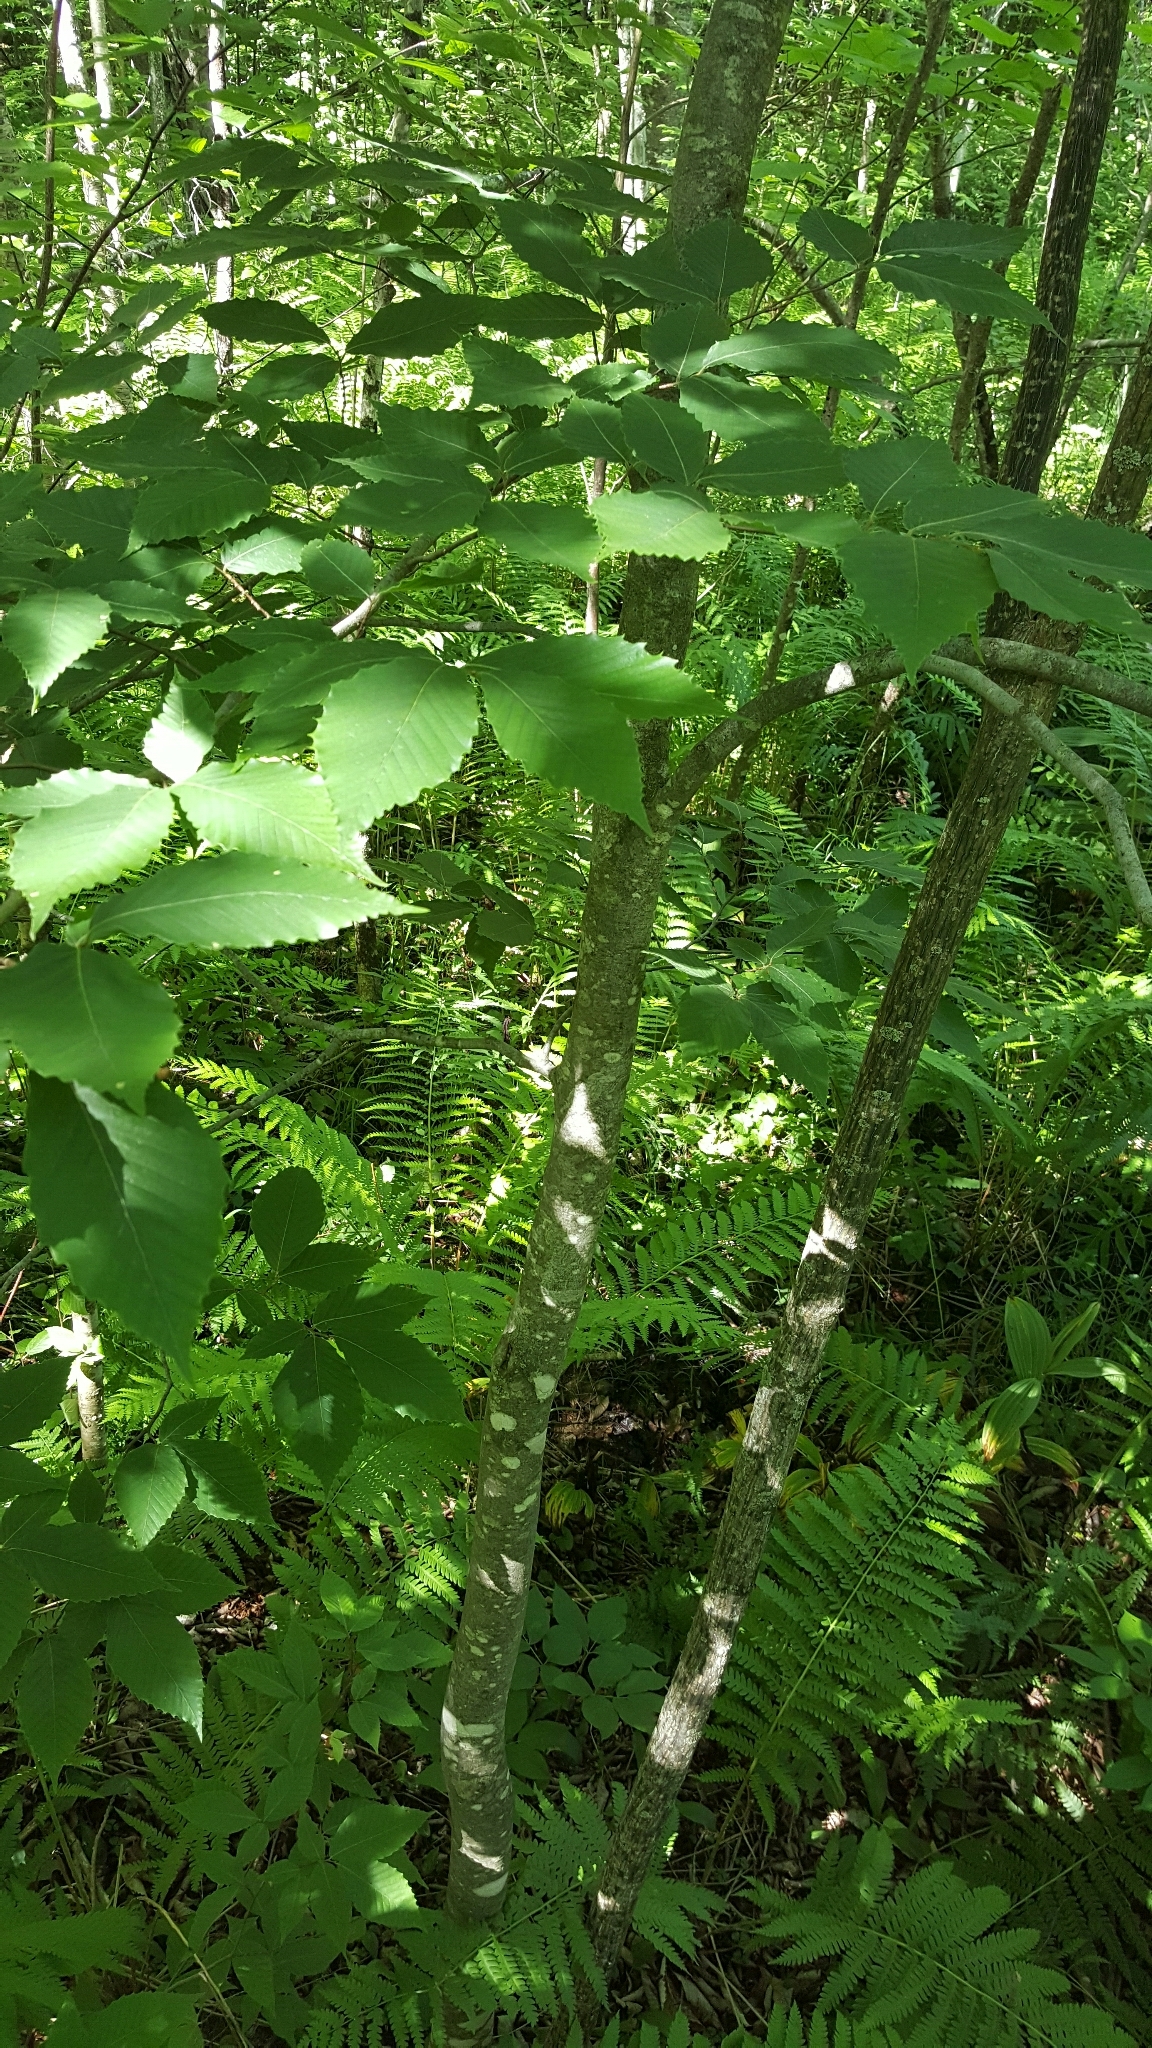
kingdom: Plantae
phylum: Tracheophyta
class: Magnoliopsida
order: Fagales
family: Fagaceae
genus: Fagus
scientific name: Fagus grandifolia
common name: American beech
